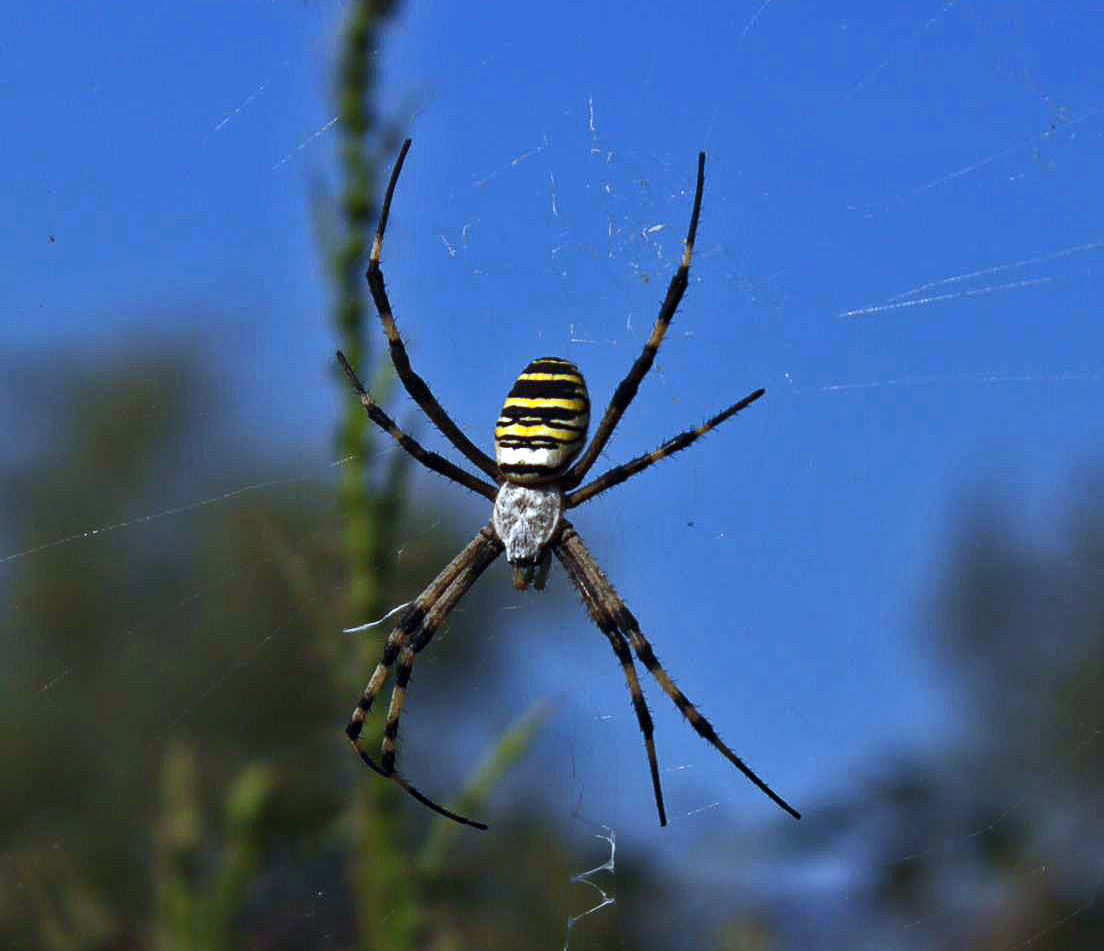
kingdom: Animalia
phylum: Arthropoda
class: Arachnida
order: Araneae
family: Araneidae
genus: Argiope
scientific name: Argiope bruennichi
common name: Wasp spider
